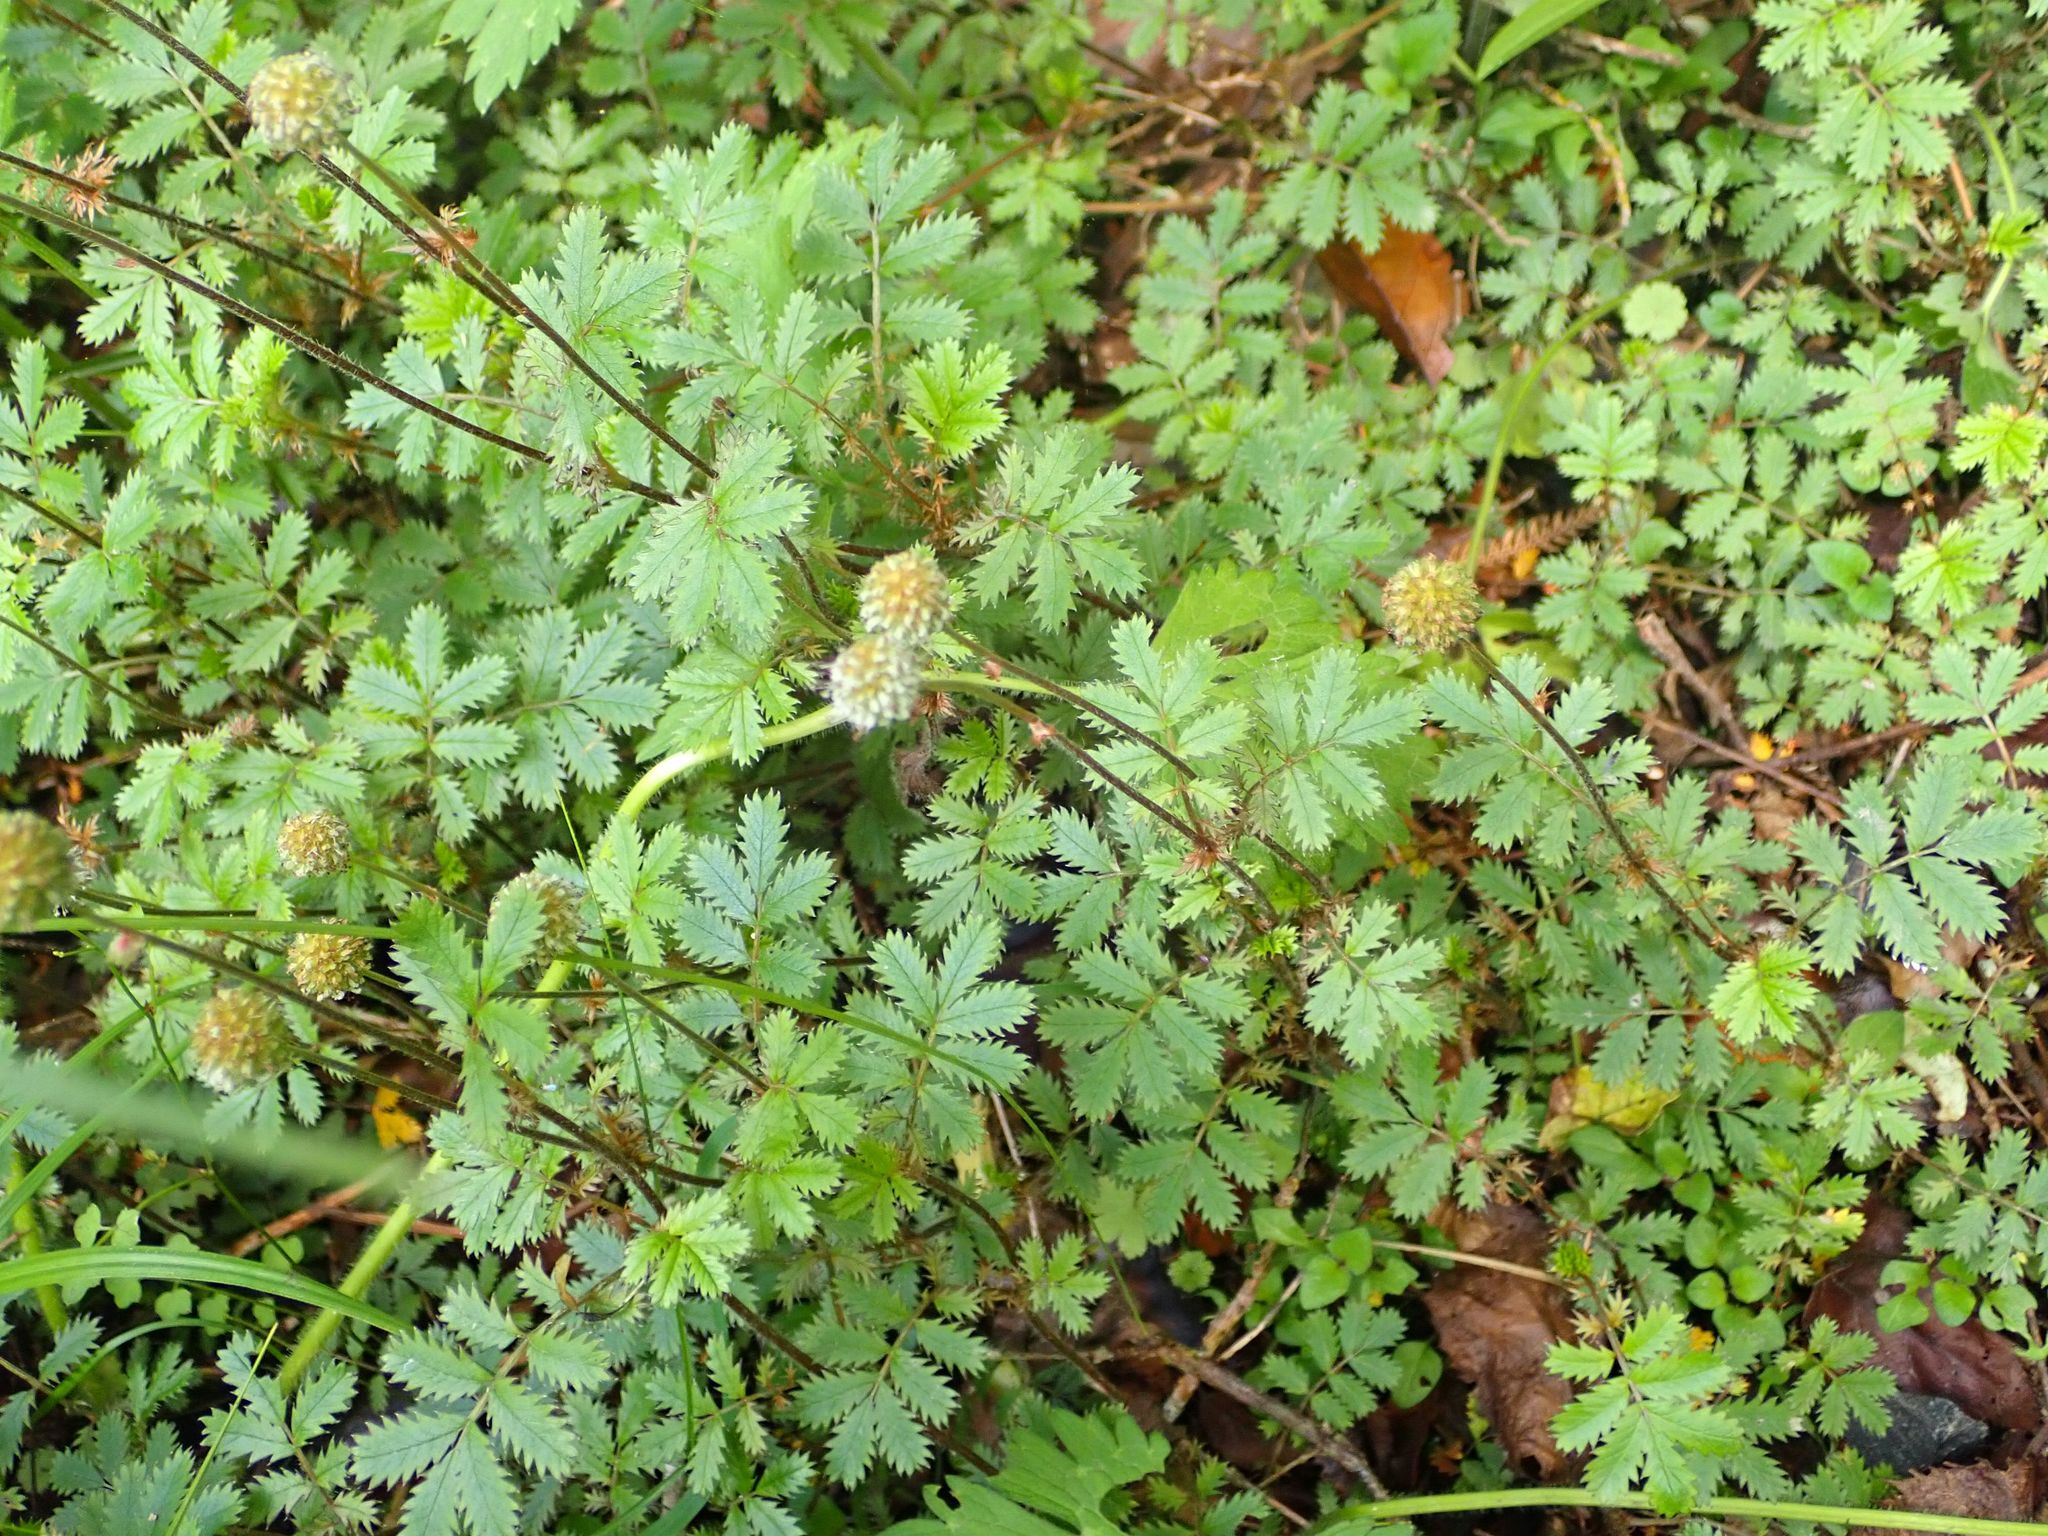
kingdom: Plantae
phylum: Tracheophyta
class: Magnoliopsida
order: Rosales
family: Rosaceae
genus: Acaena
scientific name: Acaena anserinifolia
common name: Bronze pirri-pirri-bur
